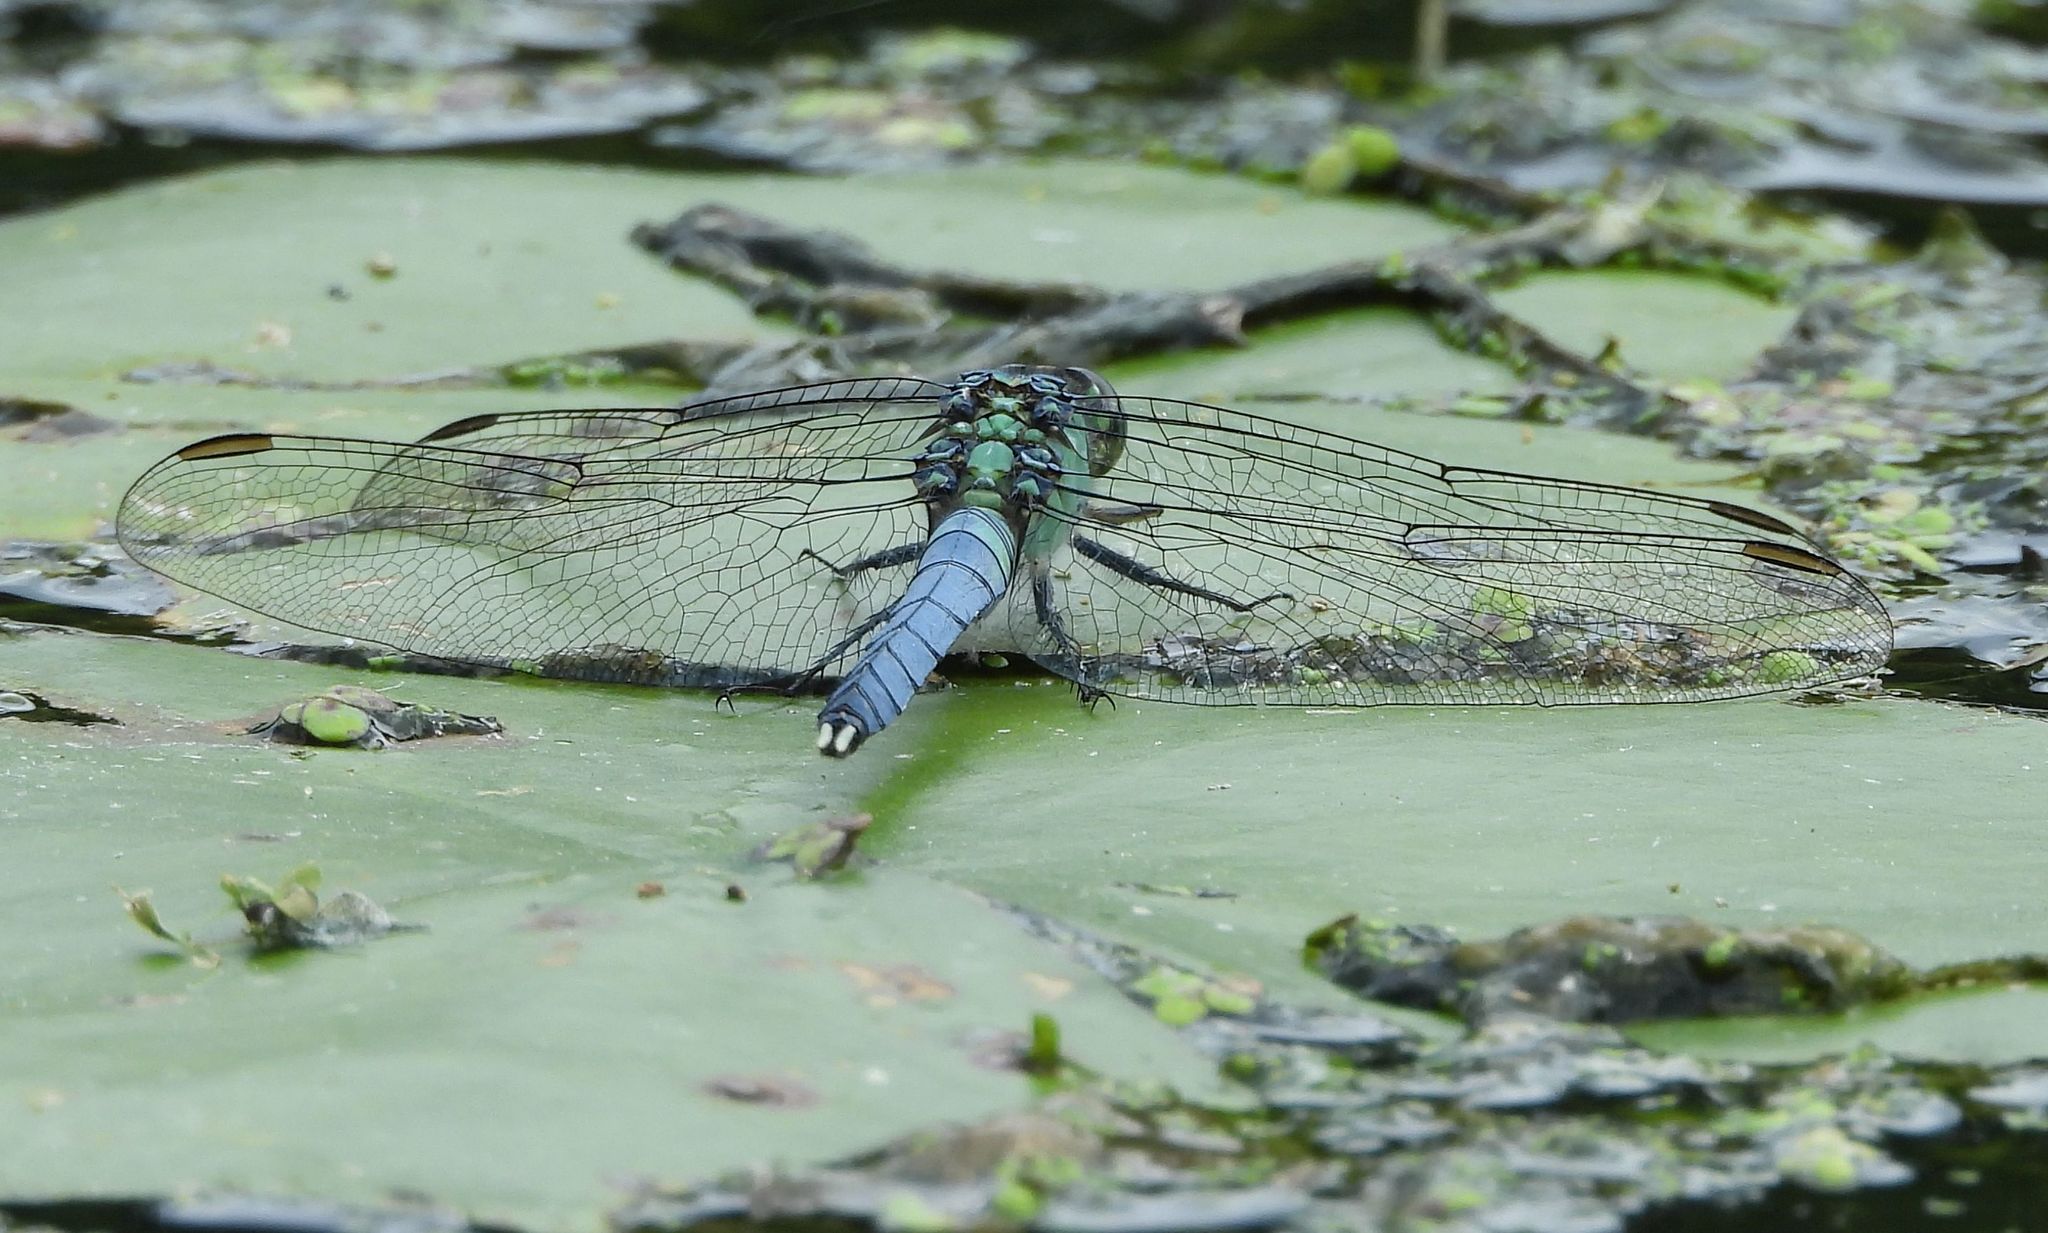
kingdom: Animalia
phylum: Arthropoda
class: Insecta
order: Odonata
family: Libellulidae
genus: Erythemis
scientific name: Erythemis simplicicollis
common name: Eastern pondhawk
